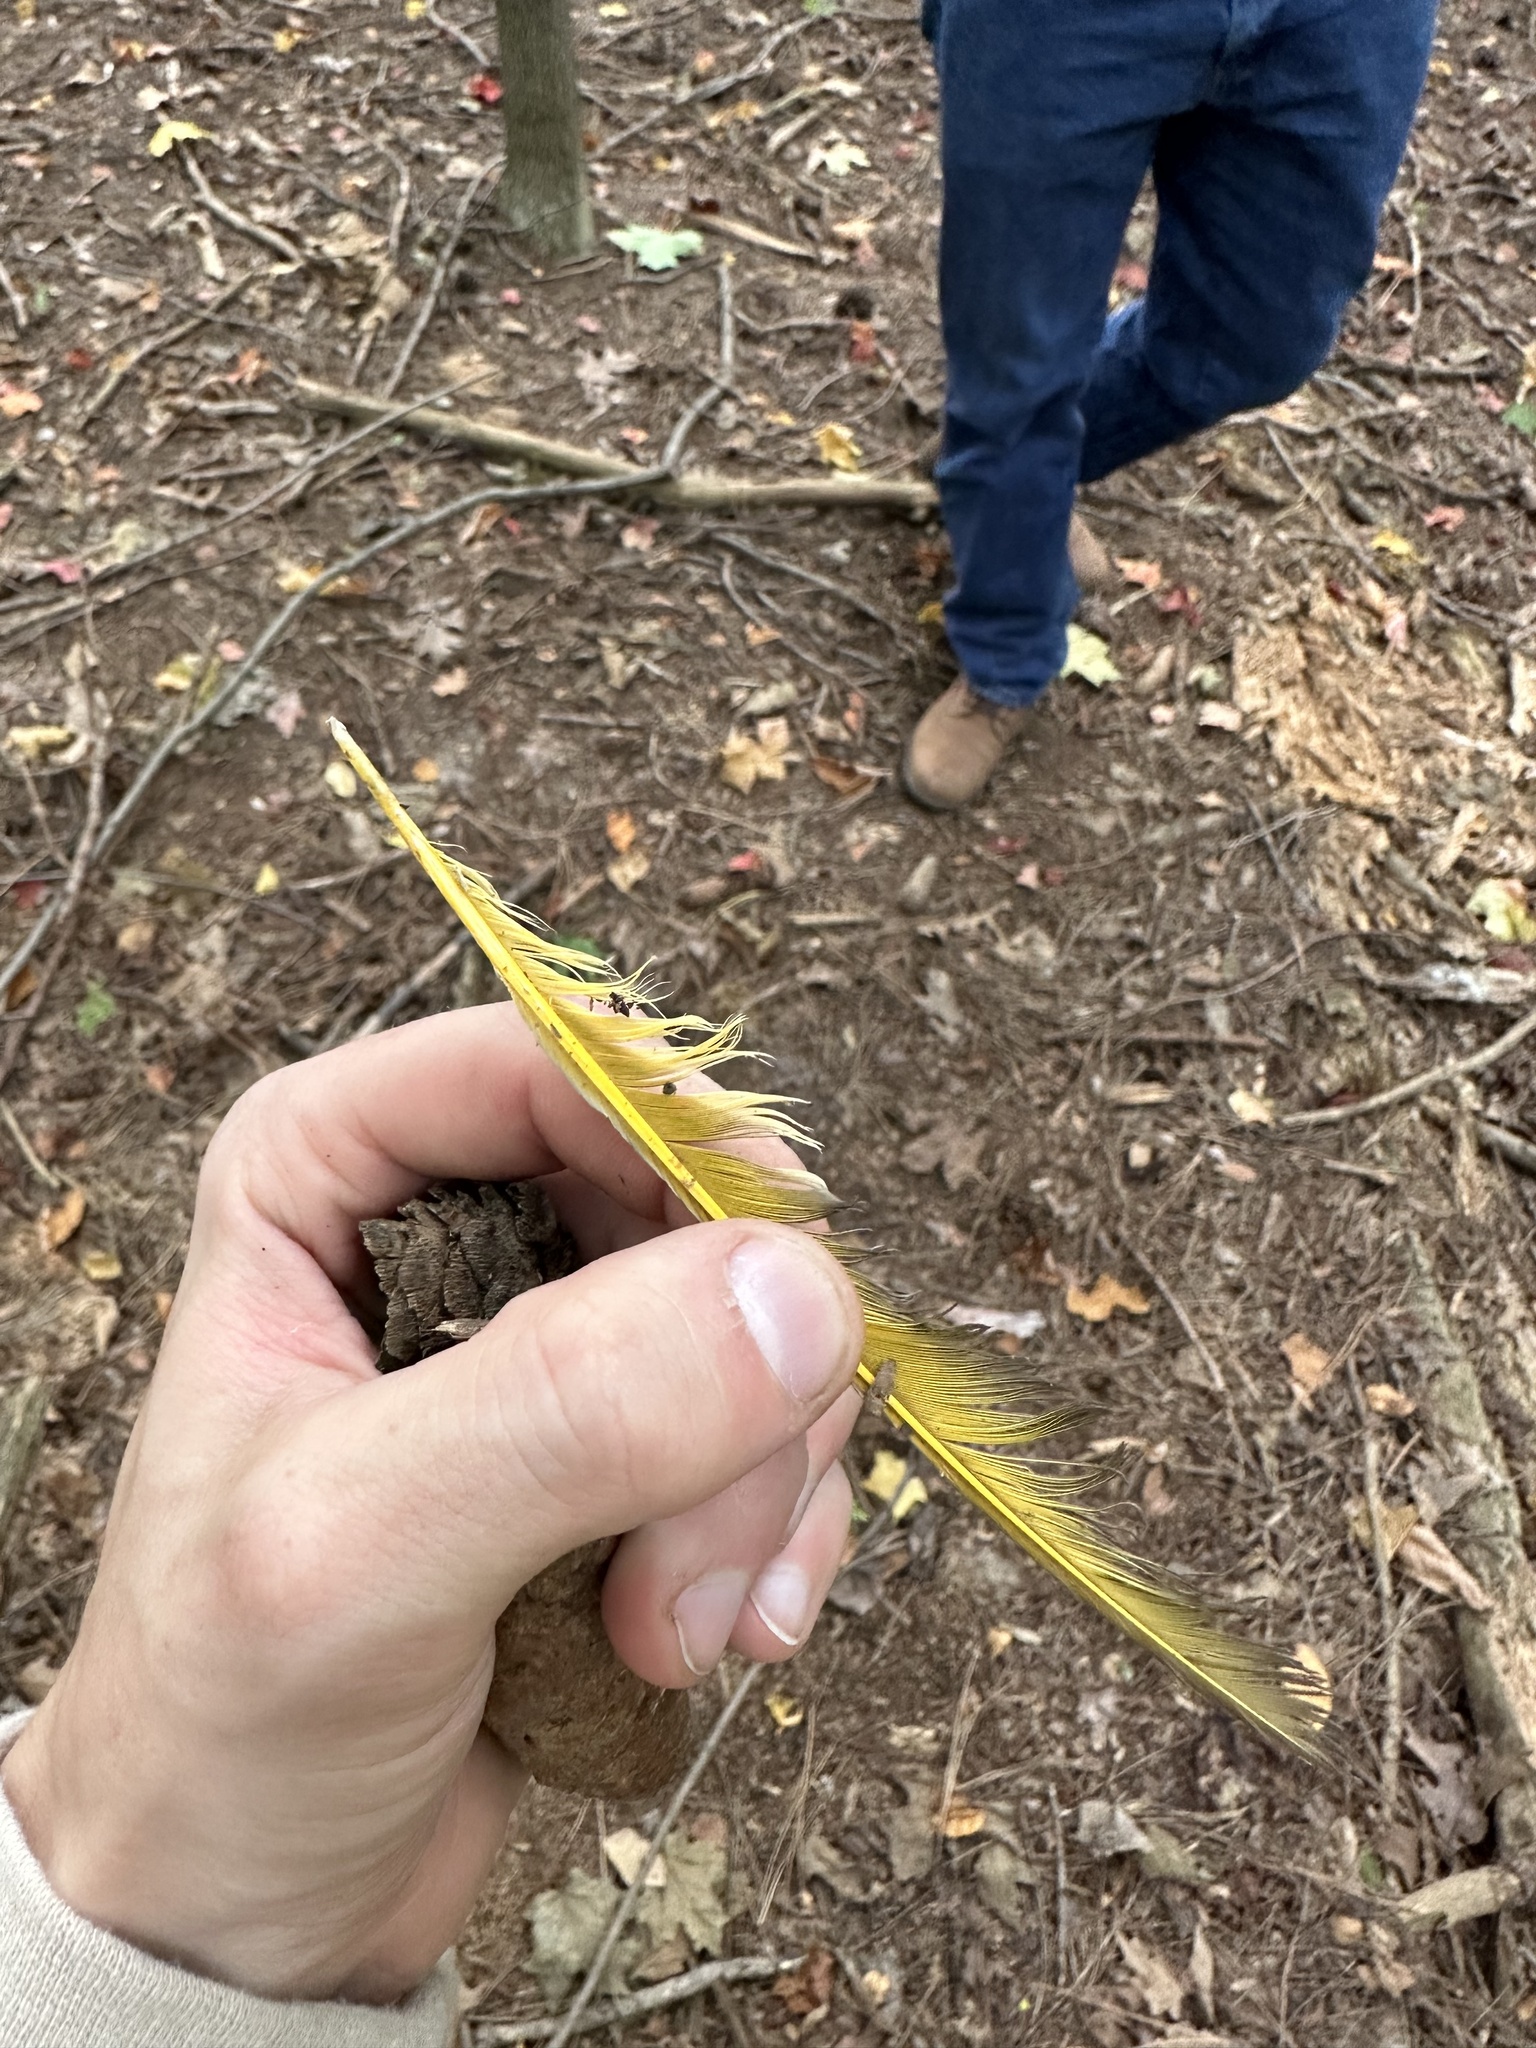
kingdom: Animalia
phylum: Chordata
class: Aves
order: Piciformes
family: Picidae
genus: Colaptes
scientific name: Colaptes auratus
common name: Northern flicker
